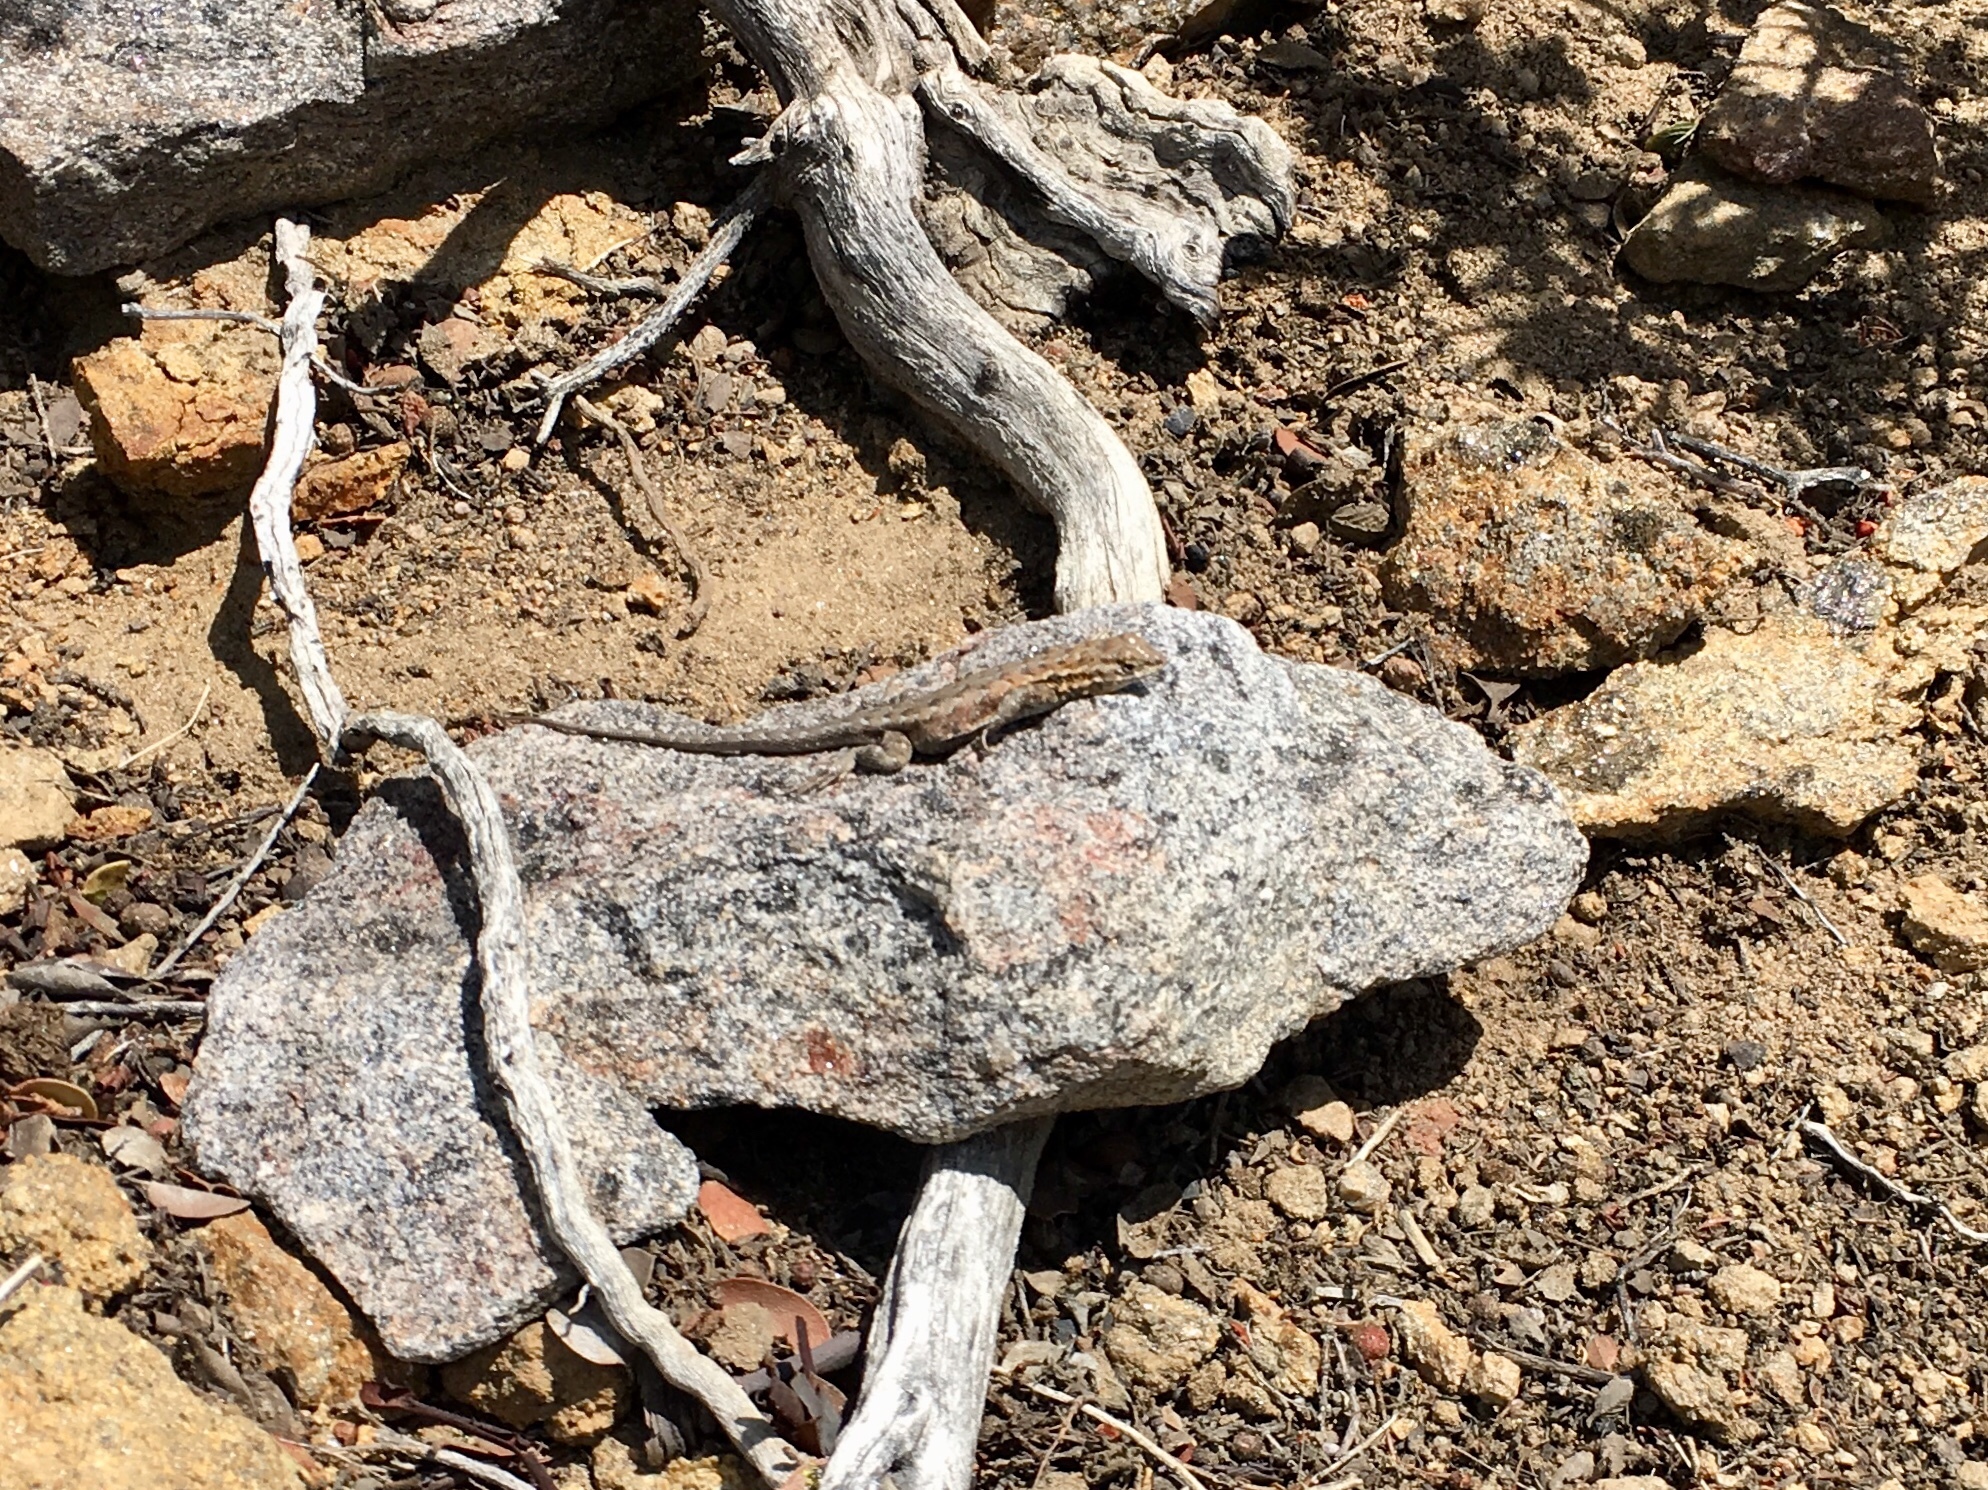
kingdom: Animalia
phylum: Chordata
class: Squamata
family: Phrynosomatidae
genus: Uta
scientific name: Uta stansburiana
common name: Side-blotched lizard
